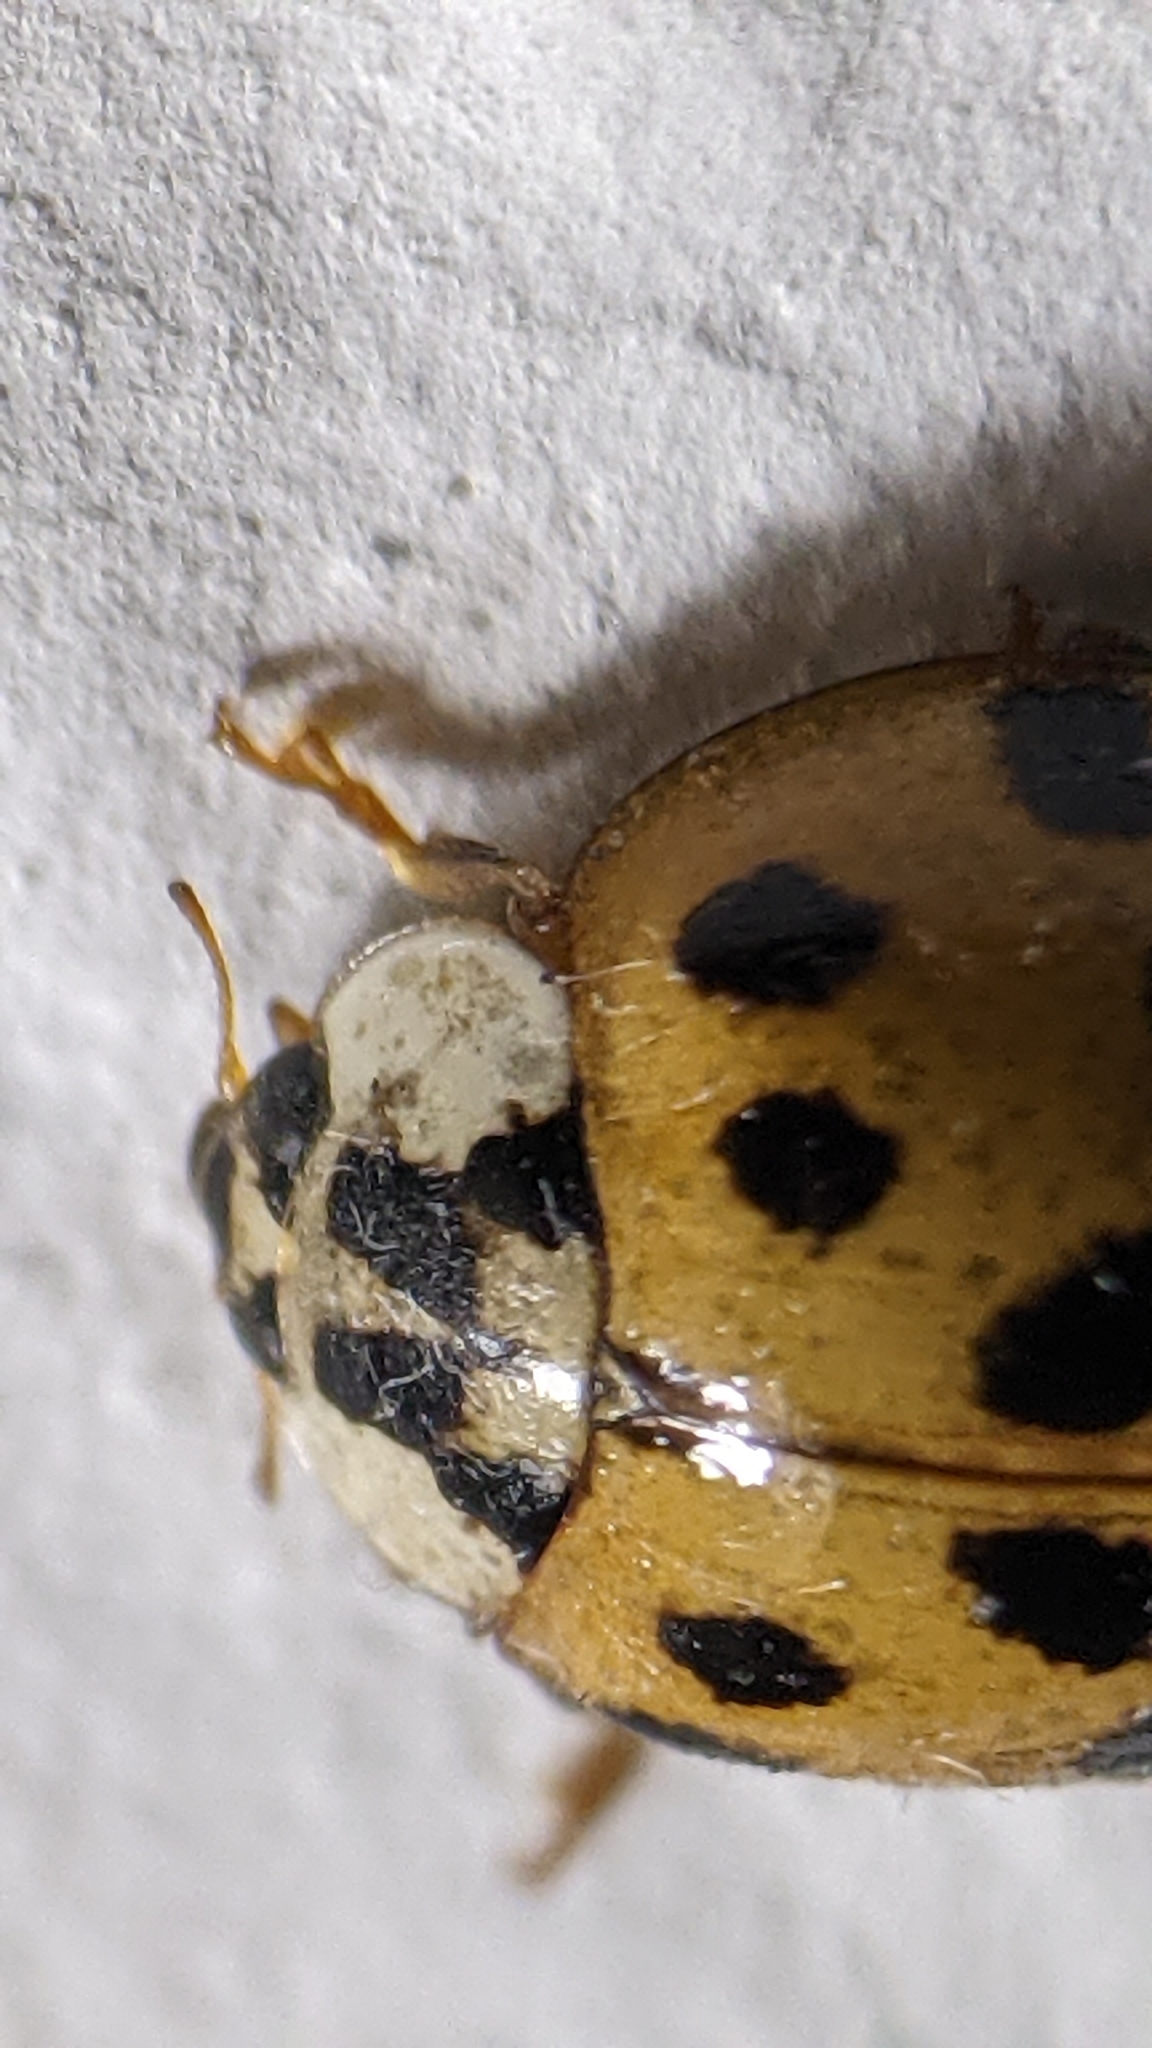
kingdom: Animalia
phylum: Arthropoda
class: Insecta
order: Coleoptera
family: Coccinellidae
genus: Harmonia
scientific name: Harmonia axyridis
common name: Harlequin ladybird
